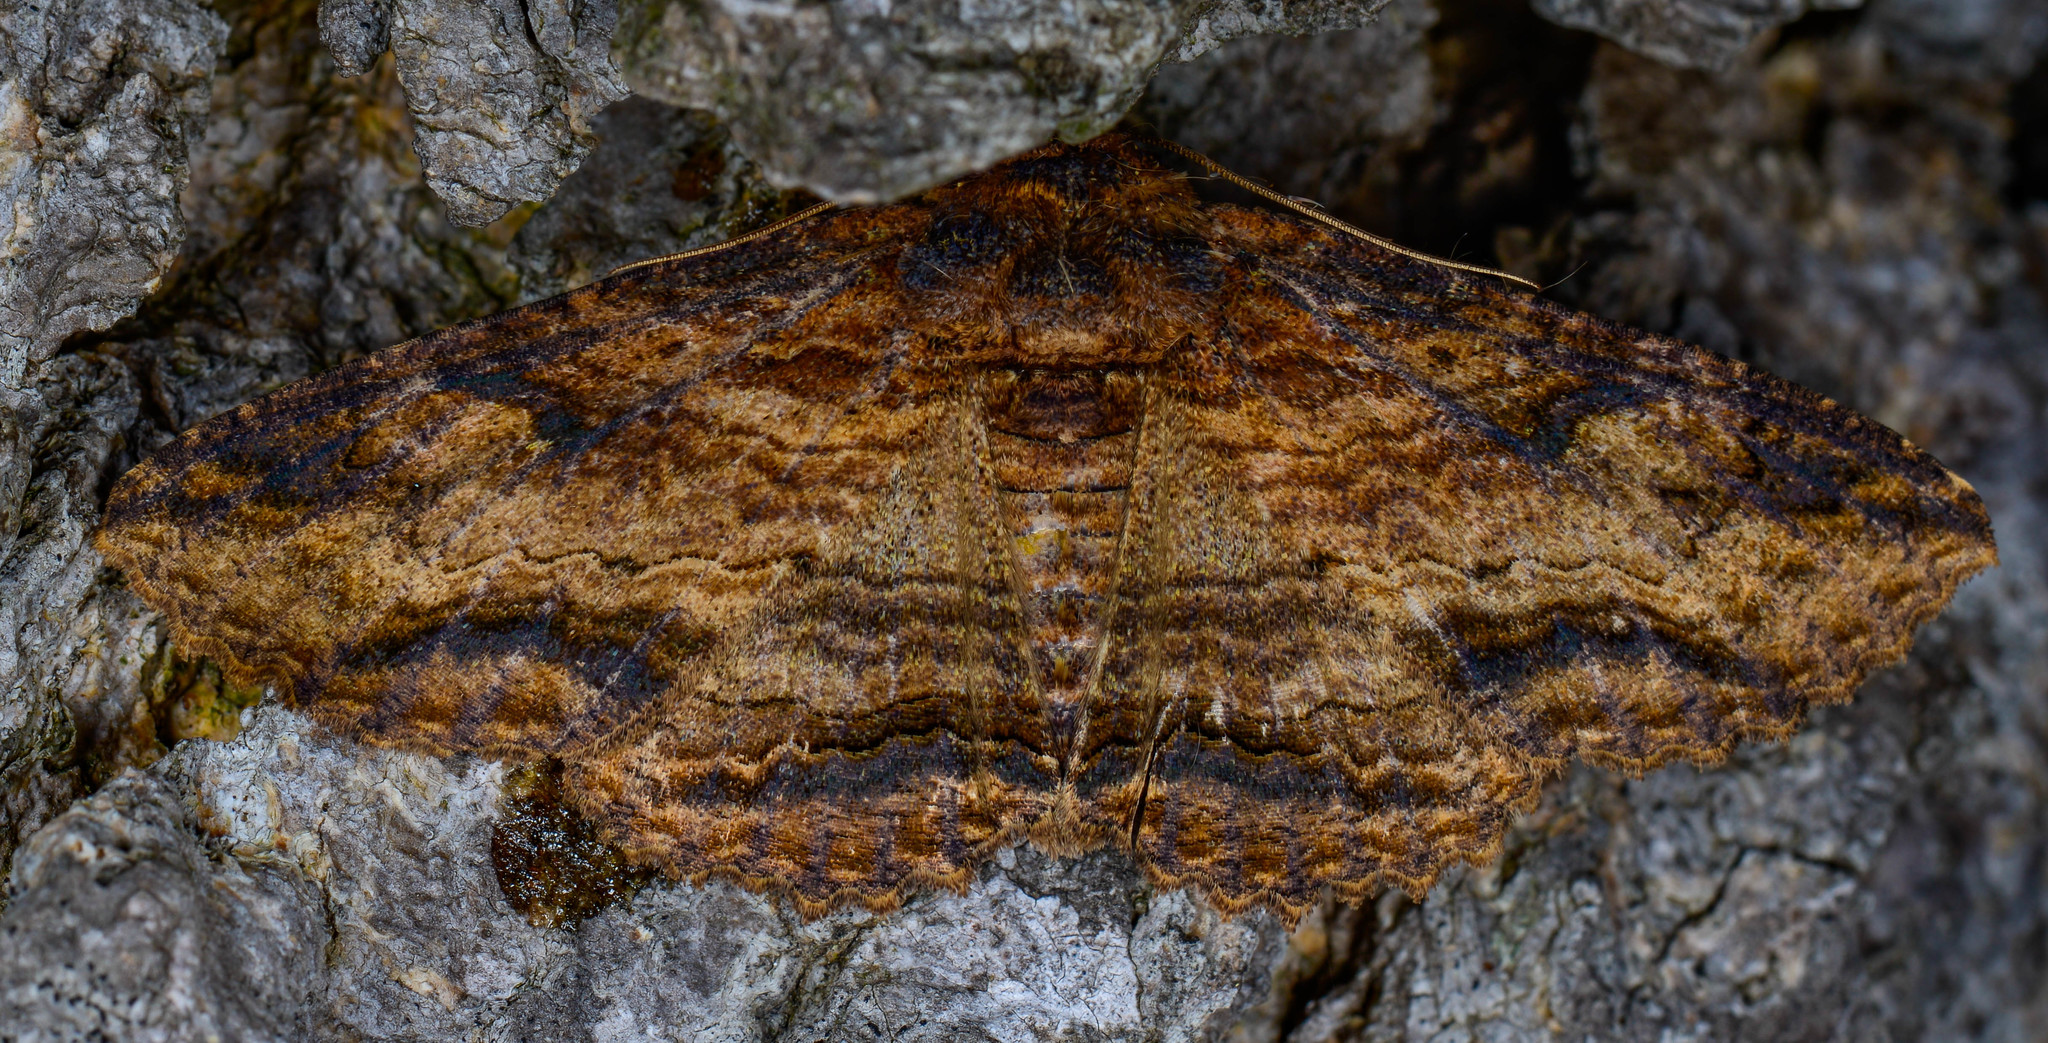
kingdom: Animalia
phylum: Arthropoda
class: Insecta
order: Lepidoptera
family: Erebidae
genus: Zale
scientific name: Zale lunata
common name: Lunate zale moth
